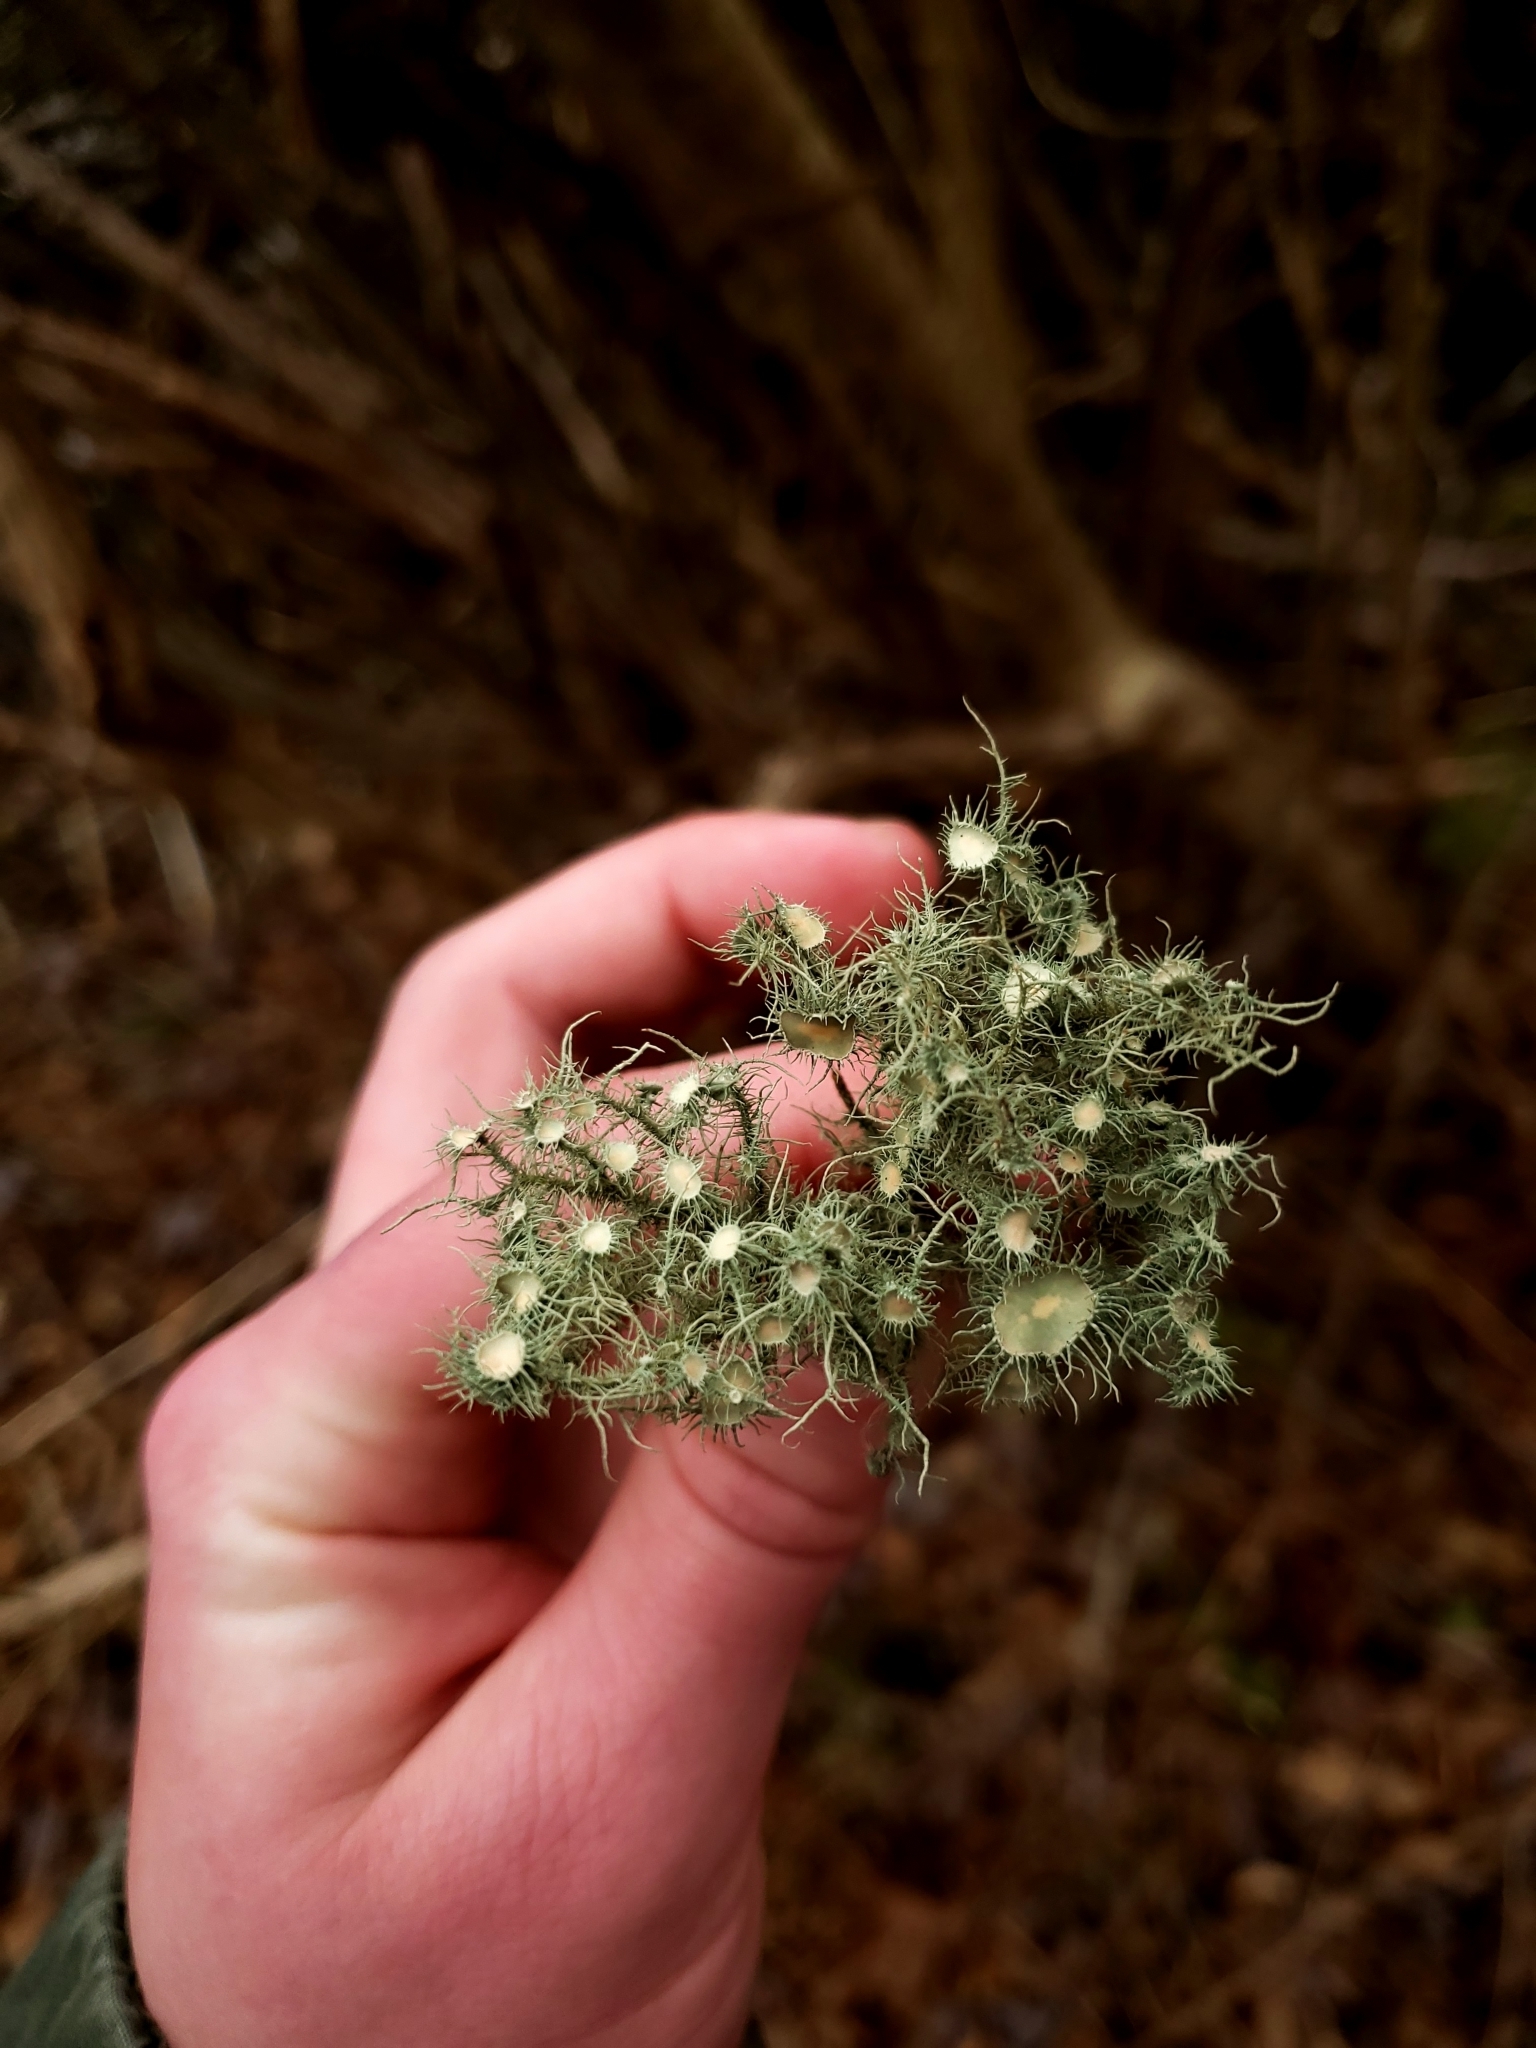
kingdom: Fungi
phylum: Ascomycota
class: Lecanoromycetes
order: Lecanorales
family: Parmeliaceae
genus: Usnea
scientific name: Usnea strigosa
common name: Bushy beard lichen
